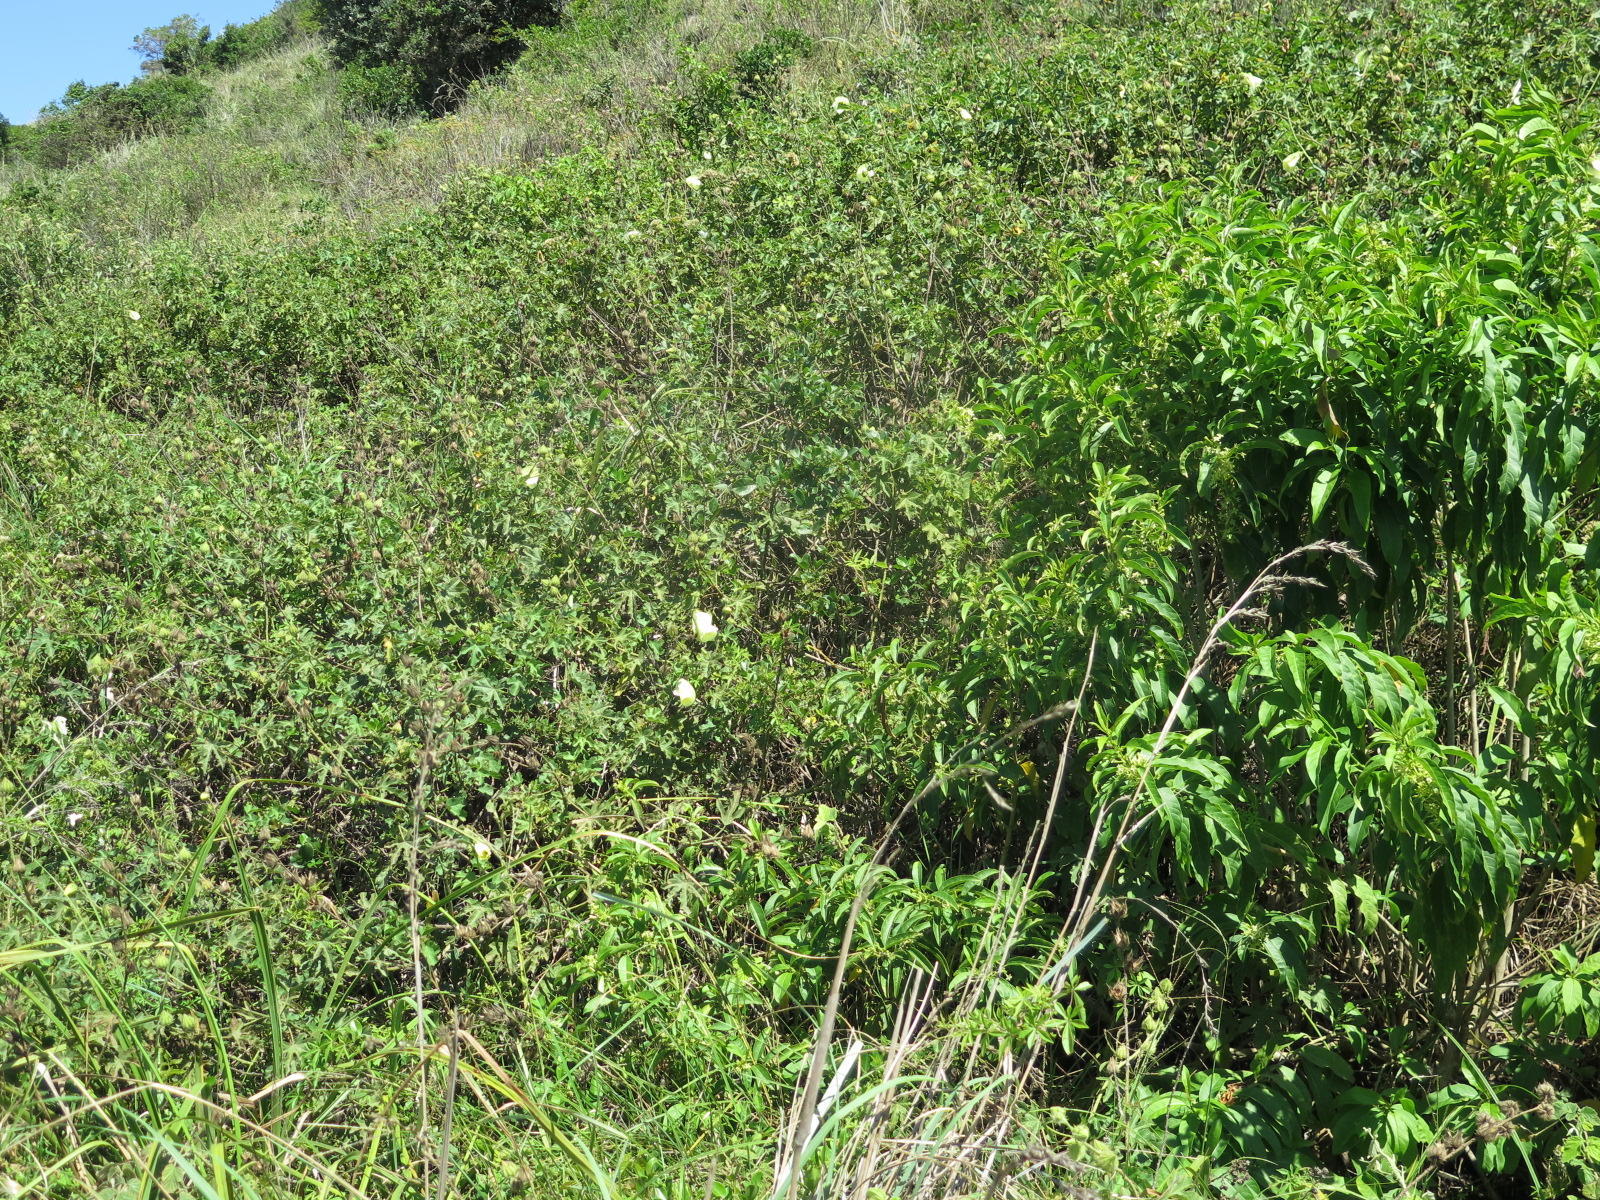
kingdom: Plantae
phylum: Tracheophyta
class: Magnoliopsida
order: Malvales
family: Malvaceae
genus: Hibiscus
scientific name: Hibiscus diversifolius
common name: Cape hibiscus
